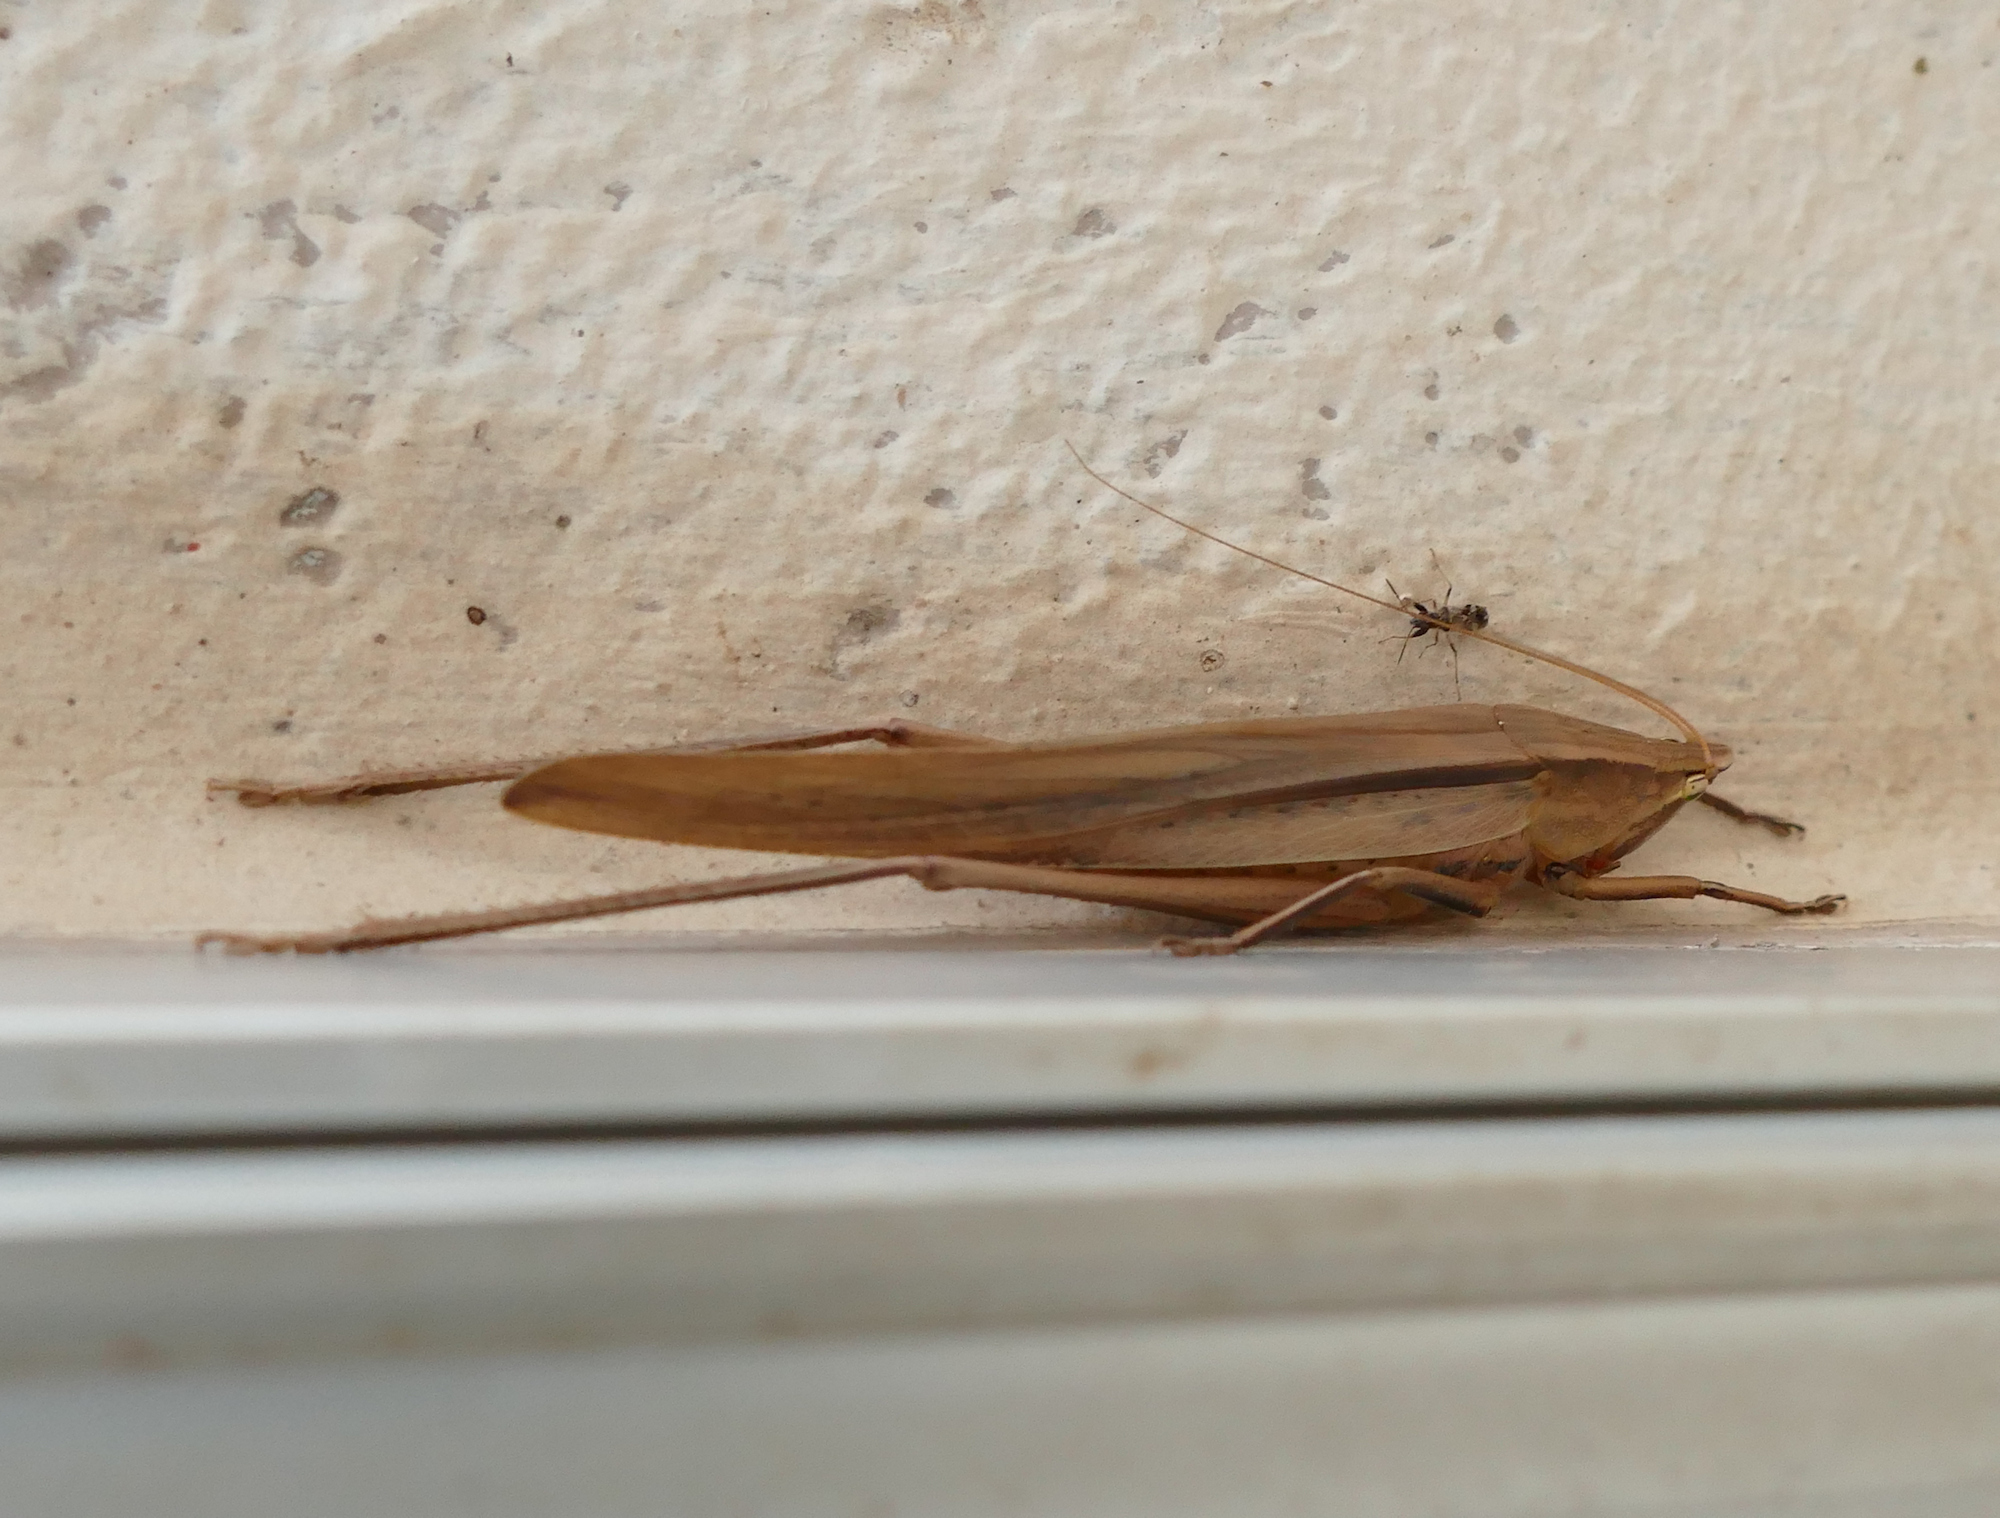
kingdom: Animalia
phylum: Arthropoda
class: Insecta
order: Orthoptera
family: Tettigoniidae
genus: Neoconocephalus
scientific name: Neoconocephalus triops
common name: Broad-tipped conehead
